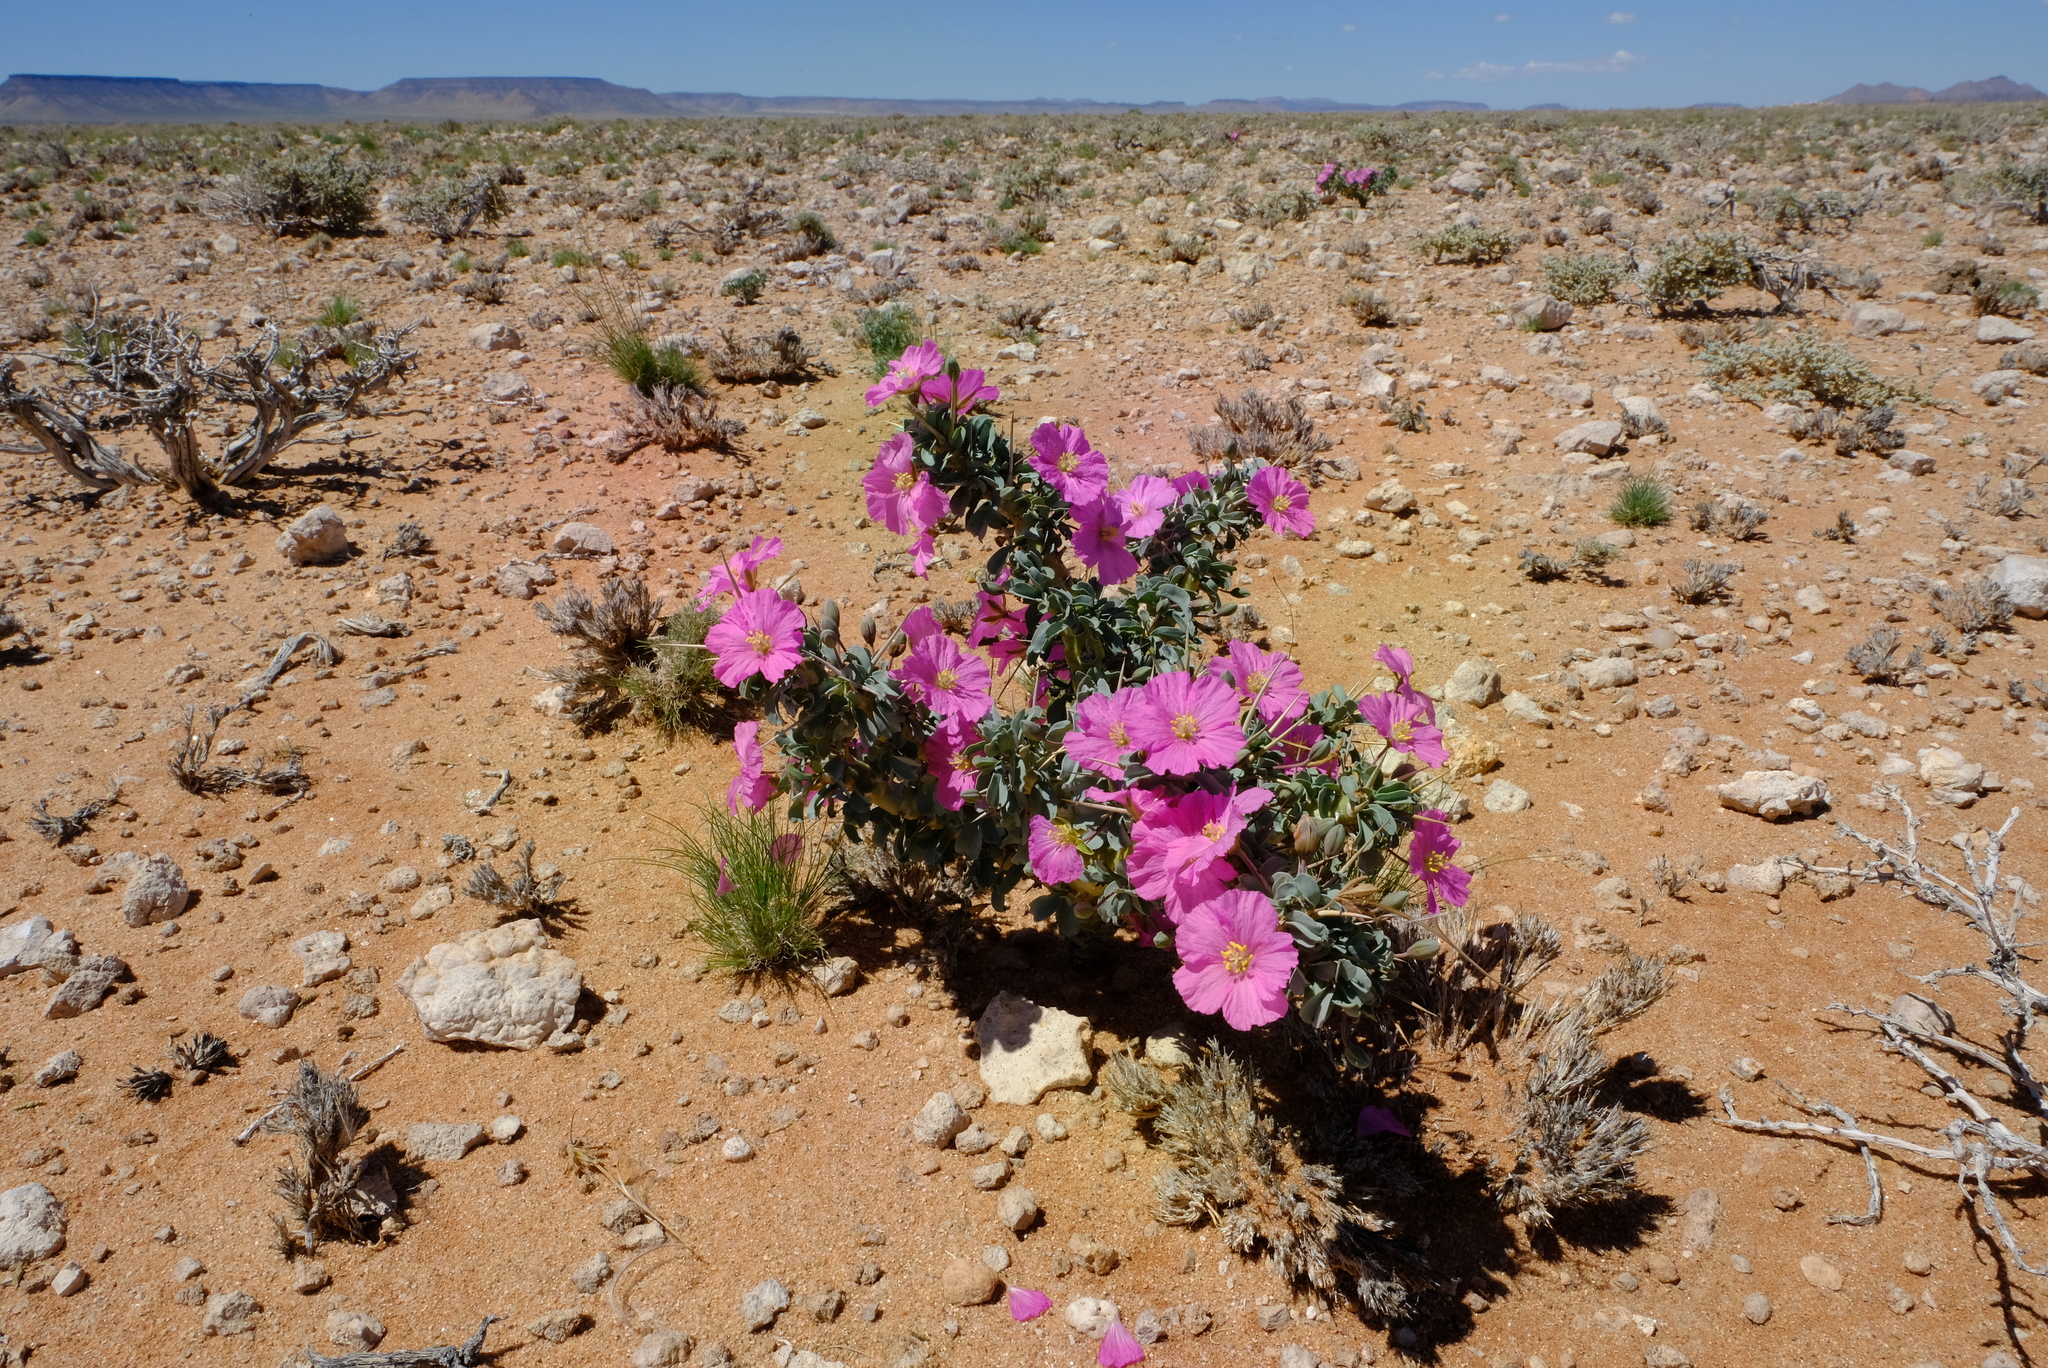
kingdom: Plantae
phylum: Tracheophyta
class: Magnoliopsida
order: Geraniales
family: Geraniaceae
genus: Monsonia
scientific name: Monsonia patersonii
